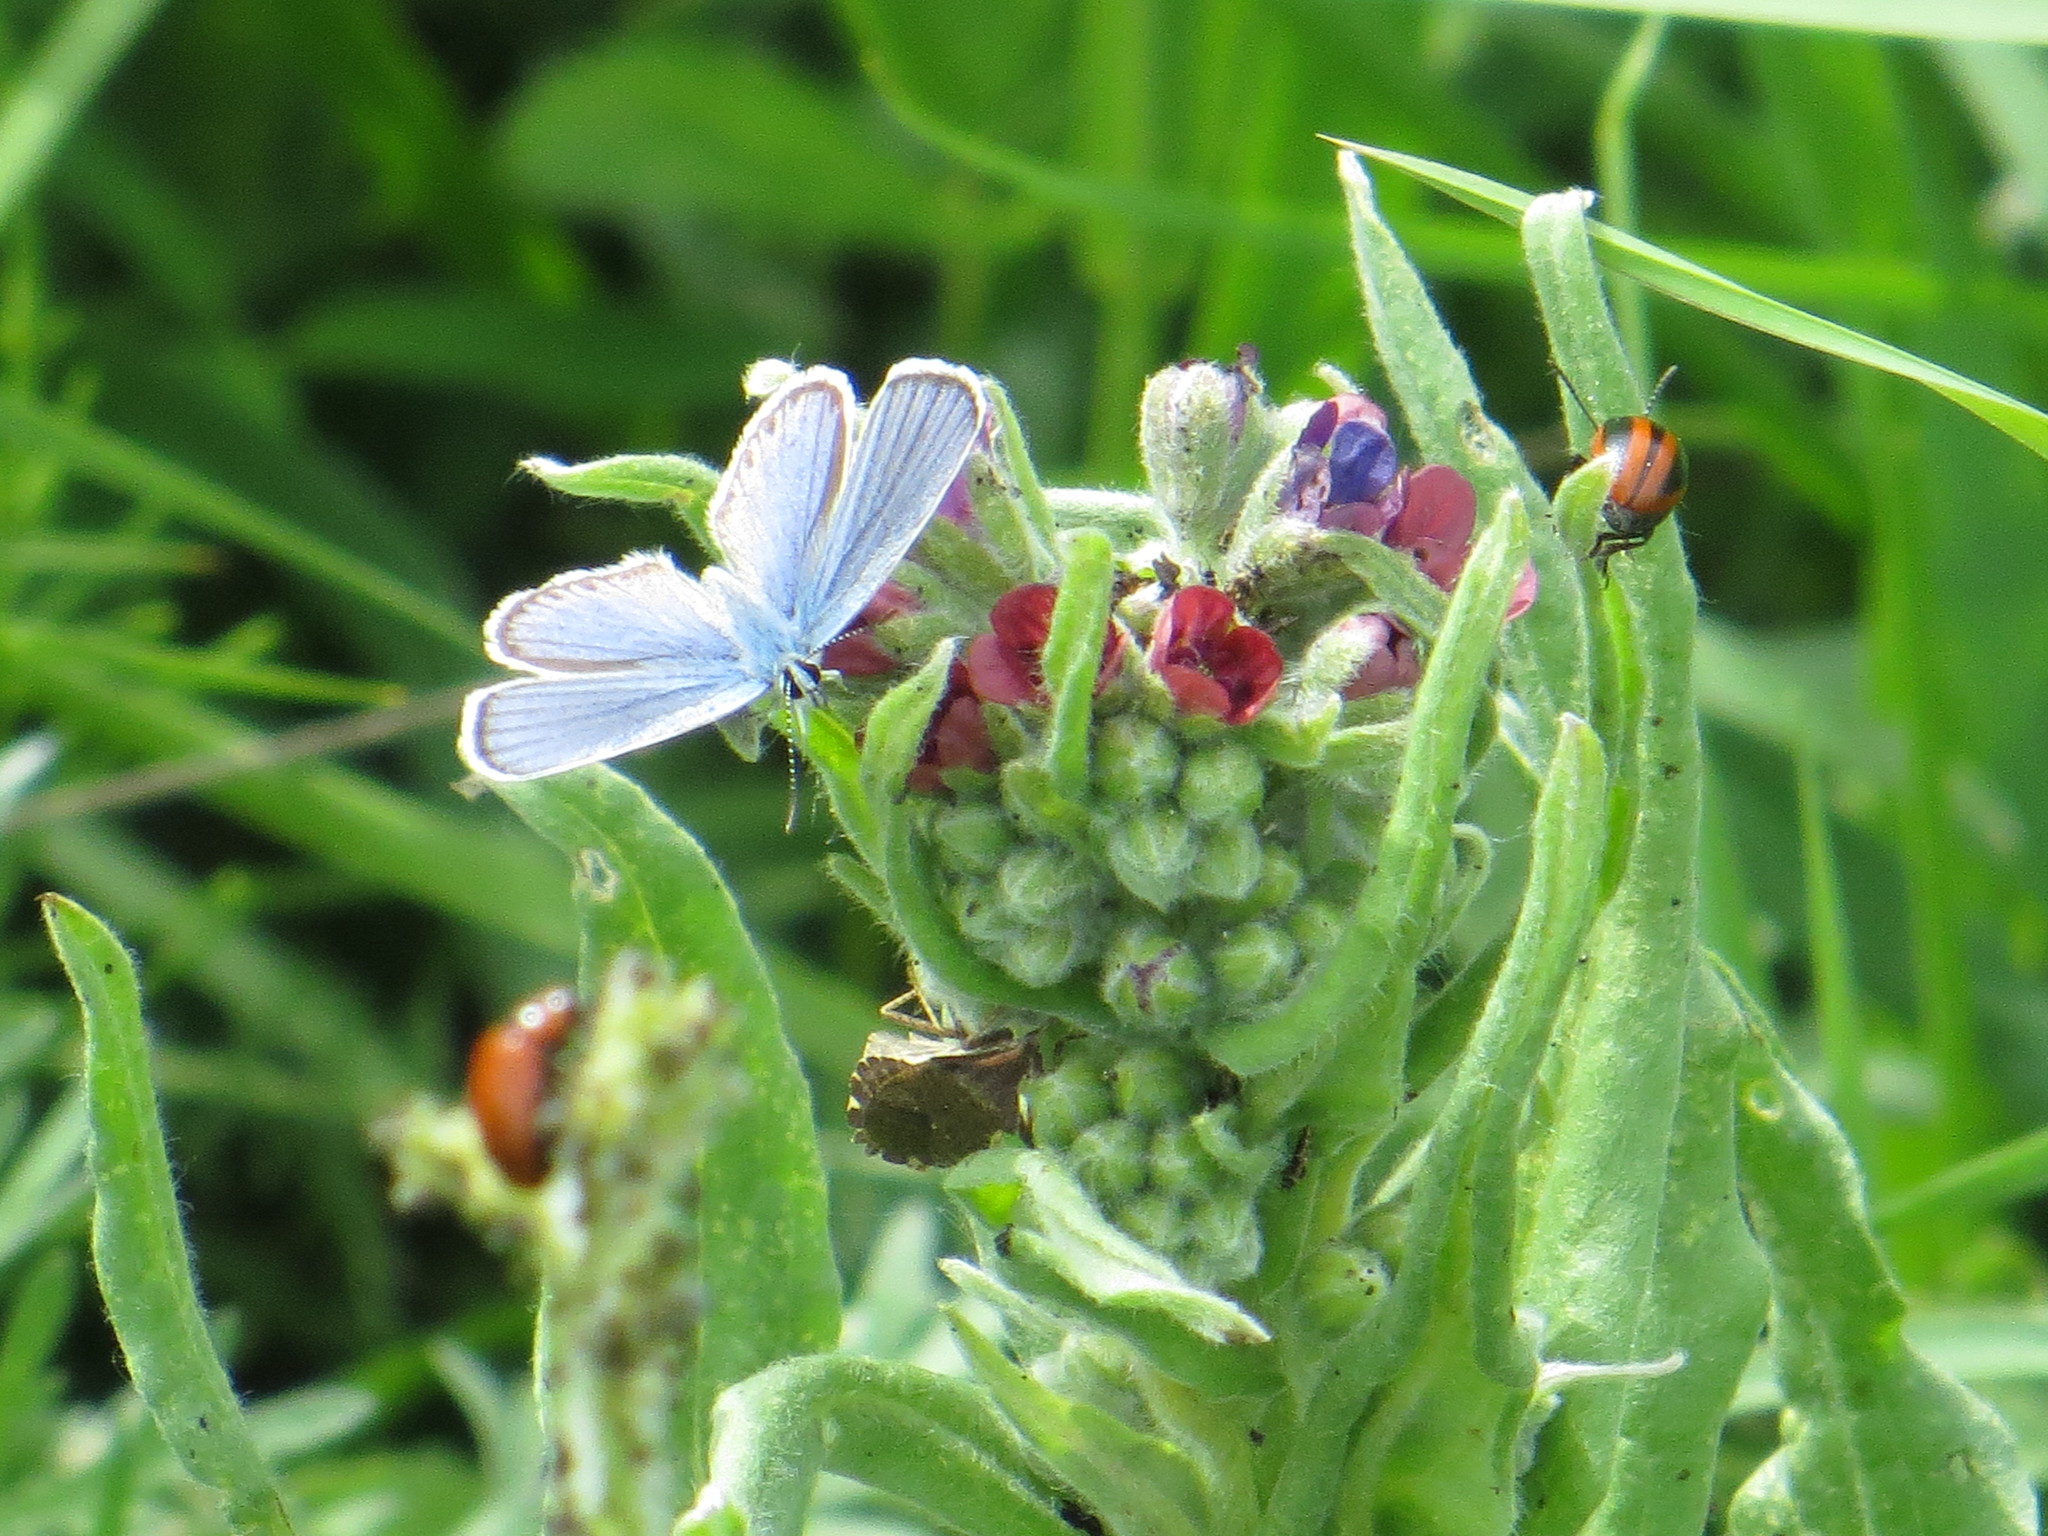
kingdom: Animalia
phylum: Arthropoda
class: Insecta
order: Lepidoptera
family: Lycaenidae
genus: Plebejus
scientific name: Plebejus argyrognomon
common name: Reverdin's blue
